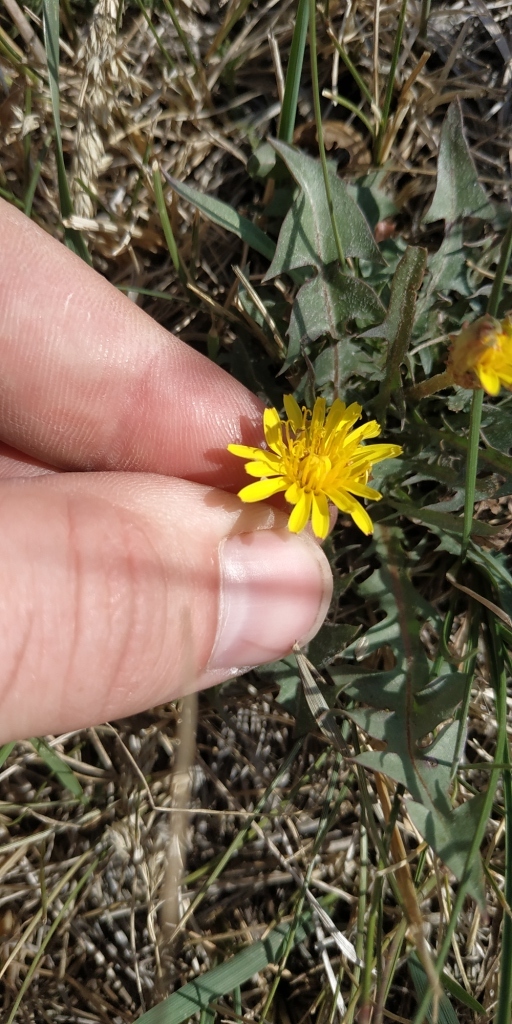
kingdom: Plantae
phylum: Tracheophyta
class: Magnoliopsida
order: Asterales
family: Asteraceae
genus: Taraxacum
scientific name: Taraxacum bessarabicum
